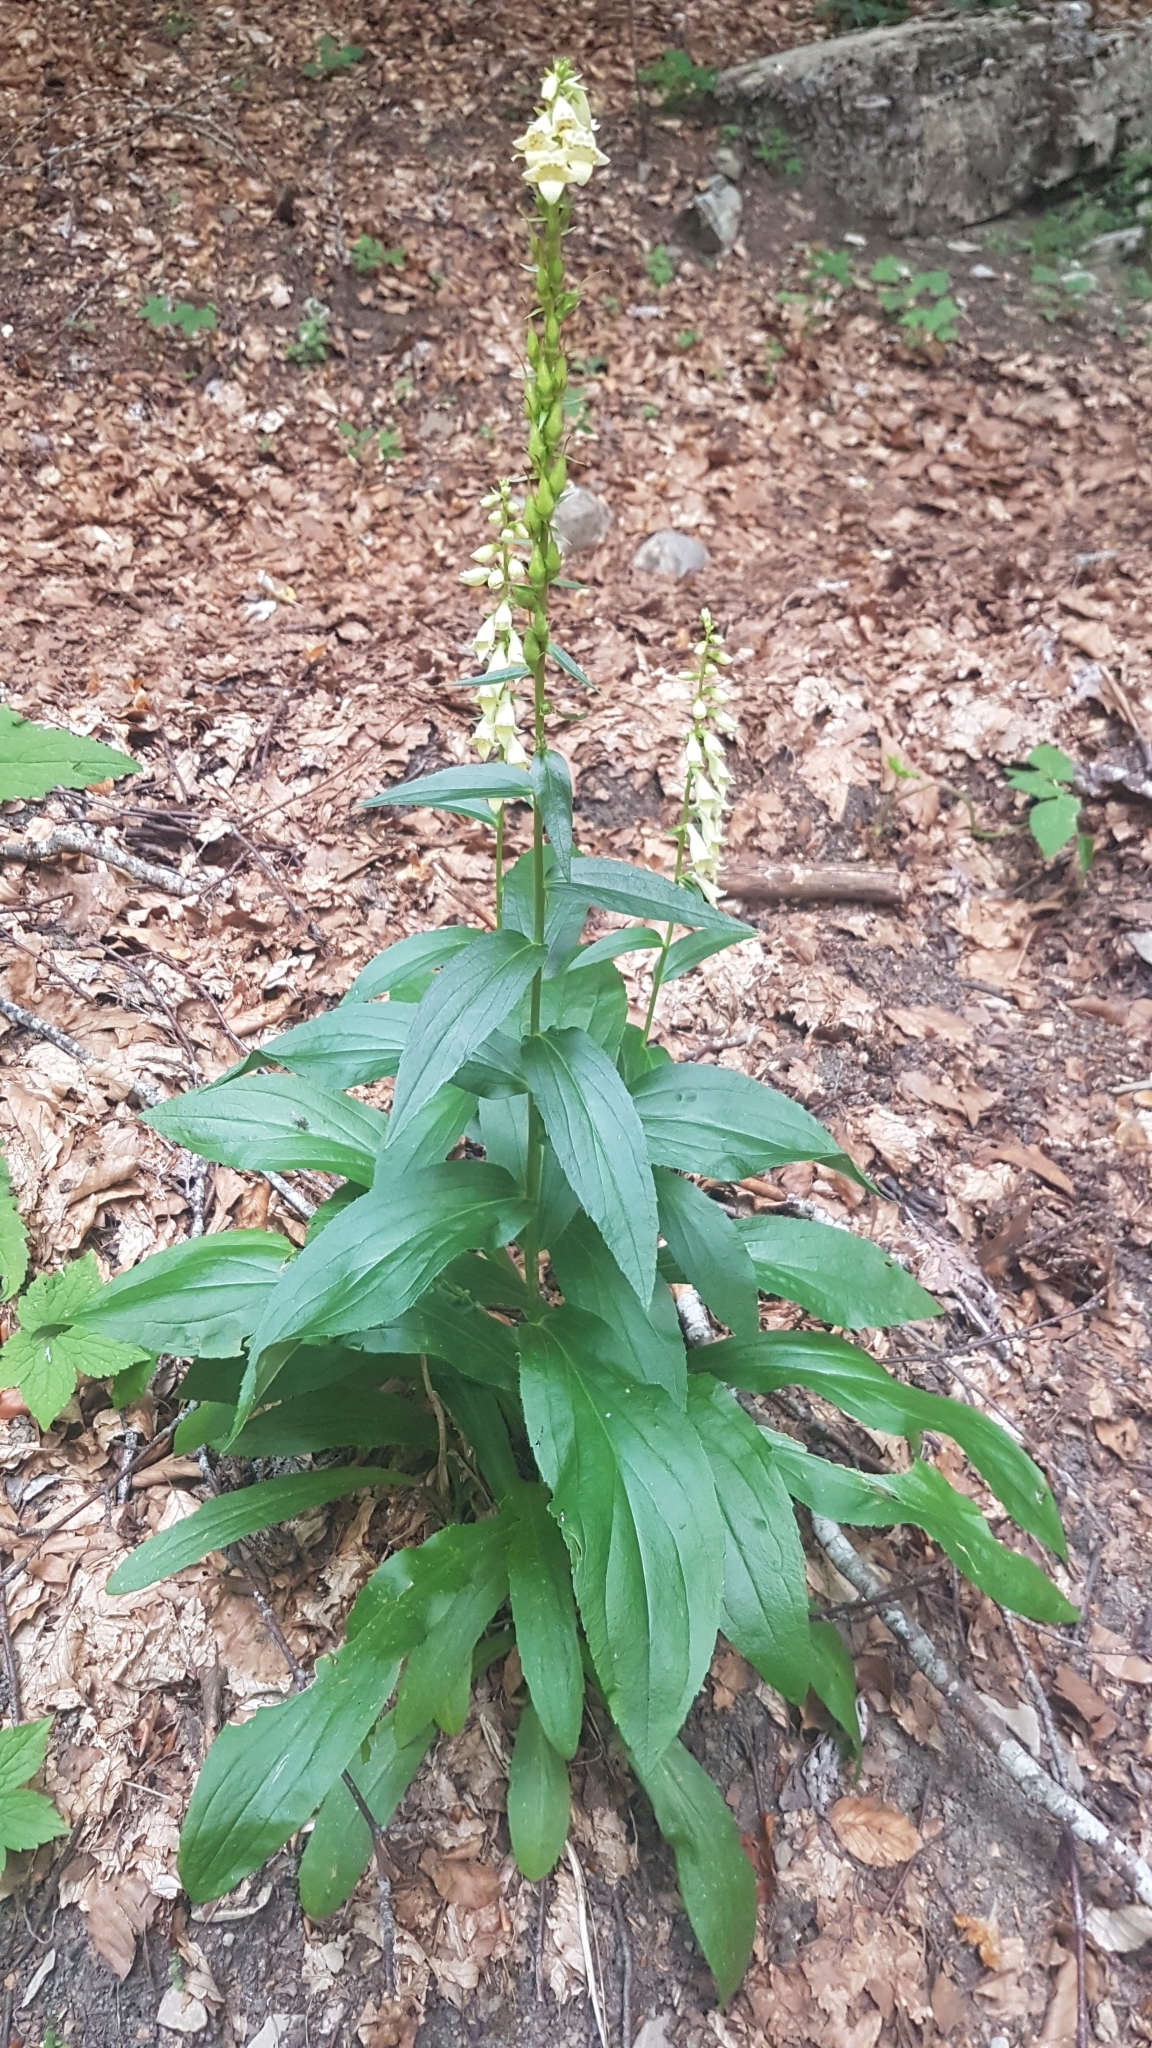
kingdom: Plantae
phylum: Tracheophyta
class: Magnoliopsida
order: Lamiales
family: Plantaginaceae
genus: Digitalis
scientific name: Digitalis lutea
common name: Straw foxglove
